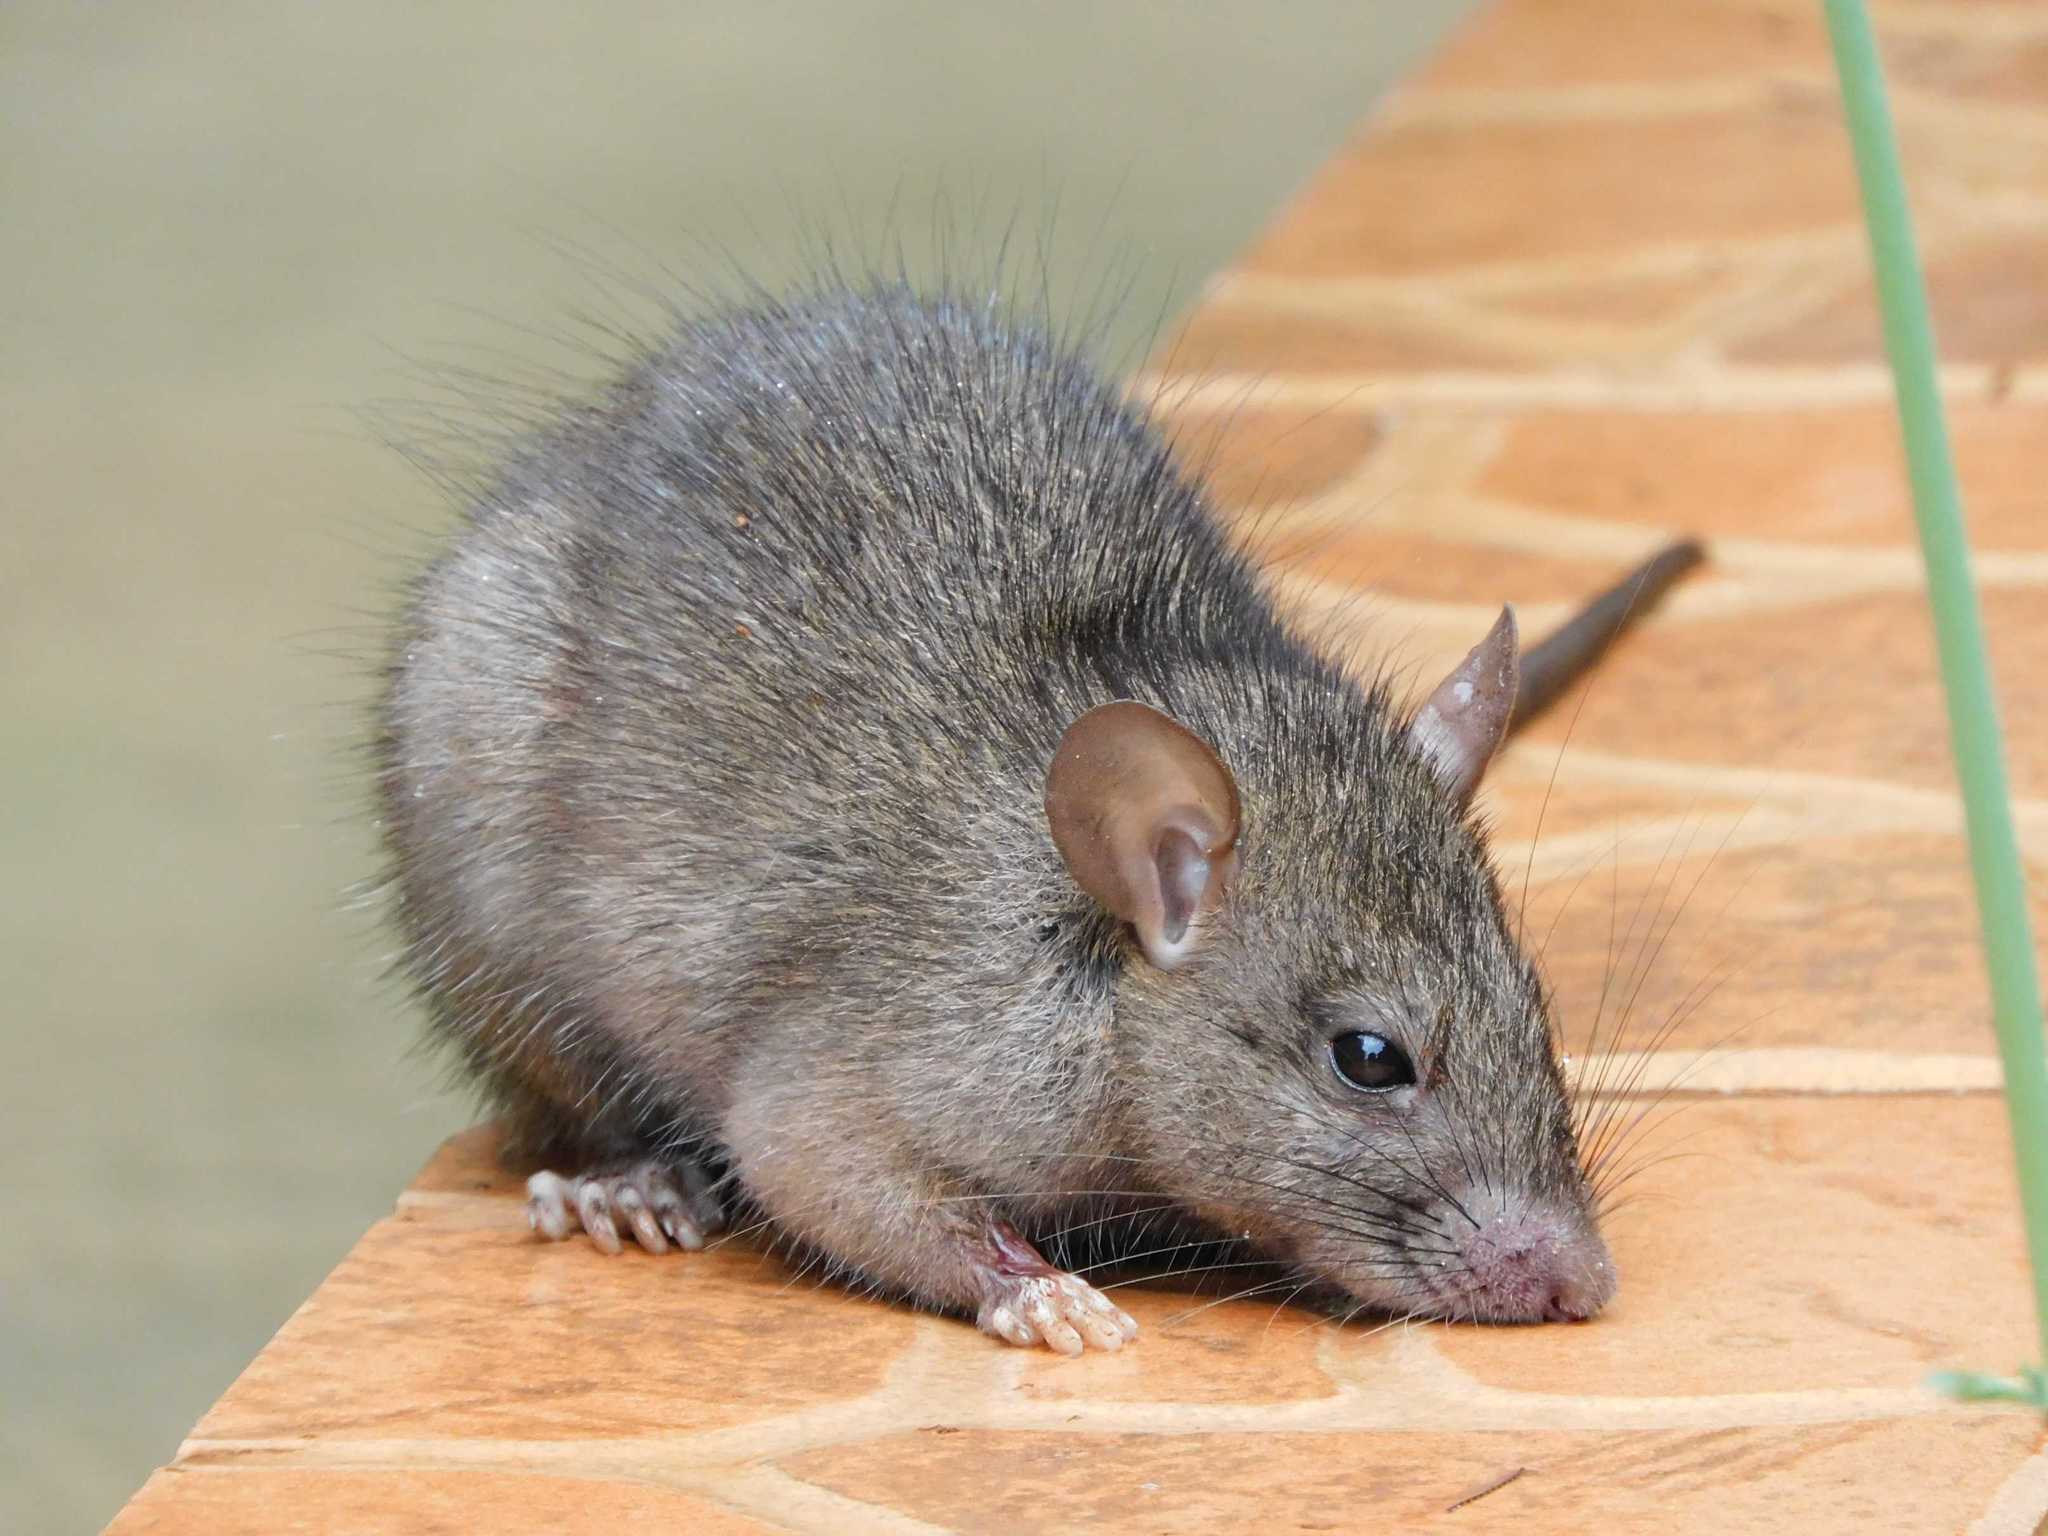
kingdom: Animalia
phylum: Chordata
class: Mammalia
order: Rodentia
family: Muridae
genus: Rattus
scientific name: Rattus rattus
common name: Black rat
